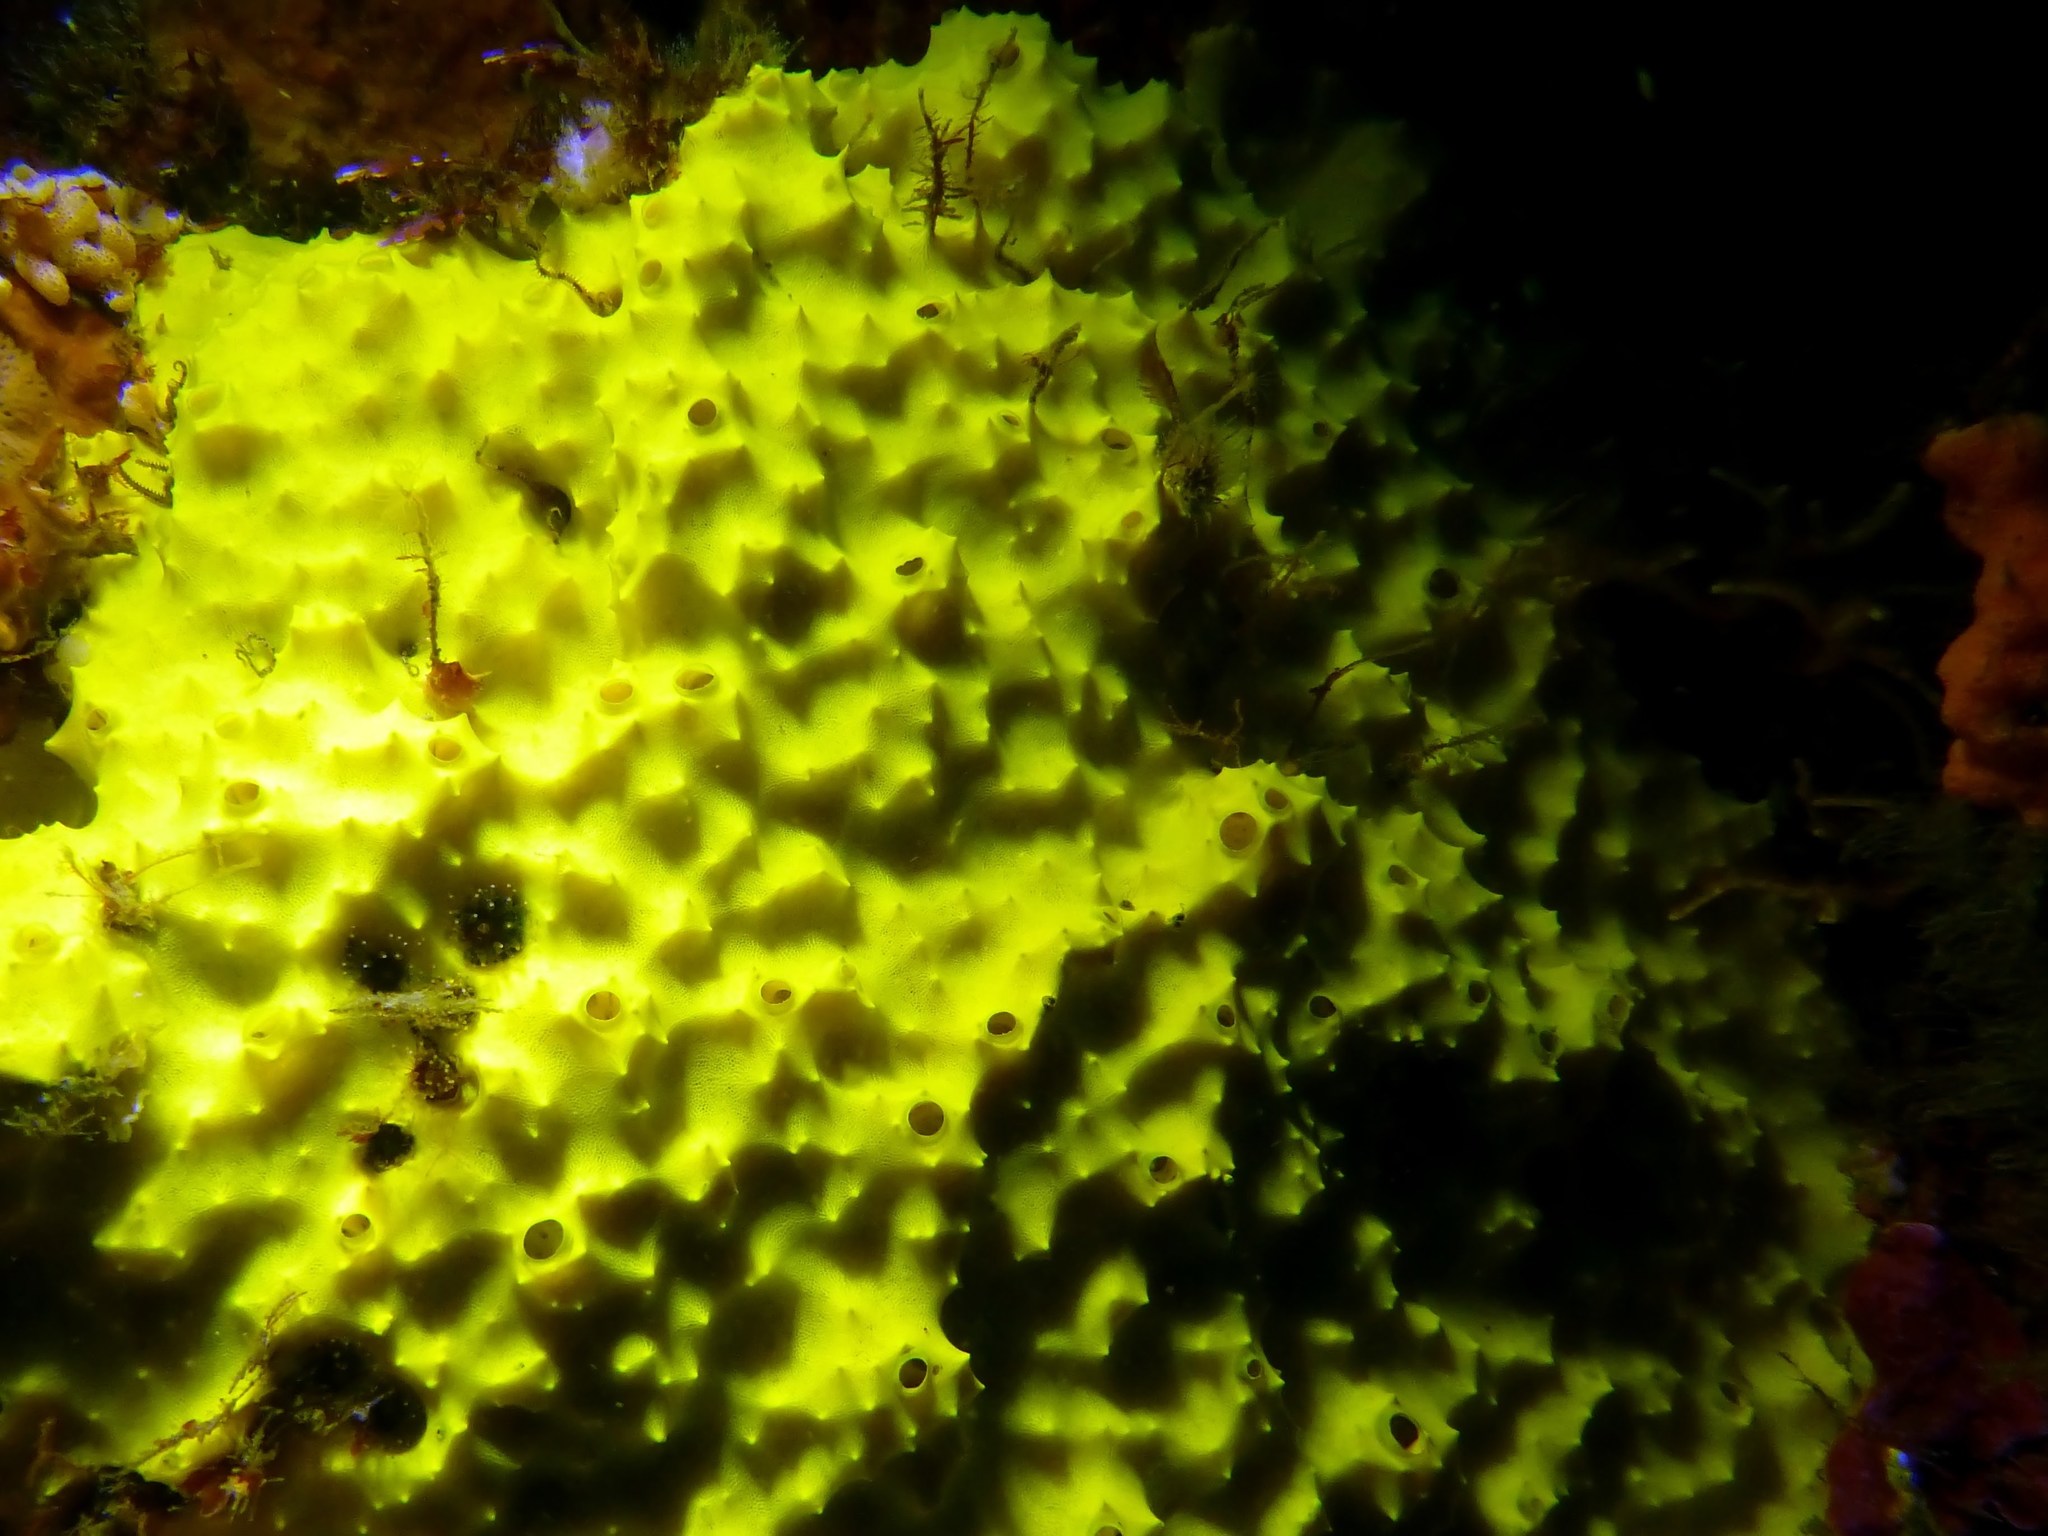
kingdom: Animalia
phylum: Porifera
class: Demospongiae
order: Dendroceratida
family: Darwinellidae
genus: Darwinella
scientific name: Darwinella australiensis
